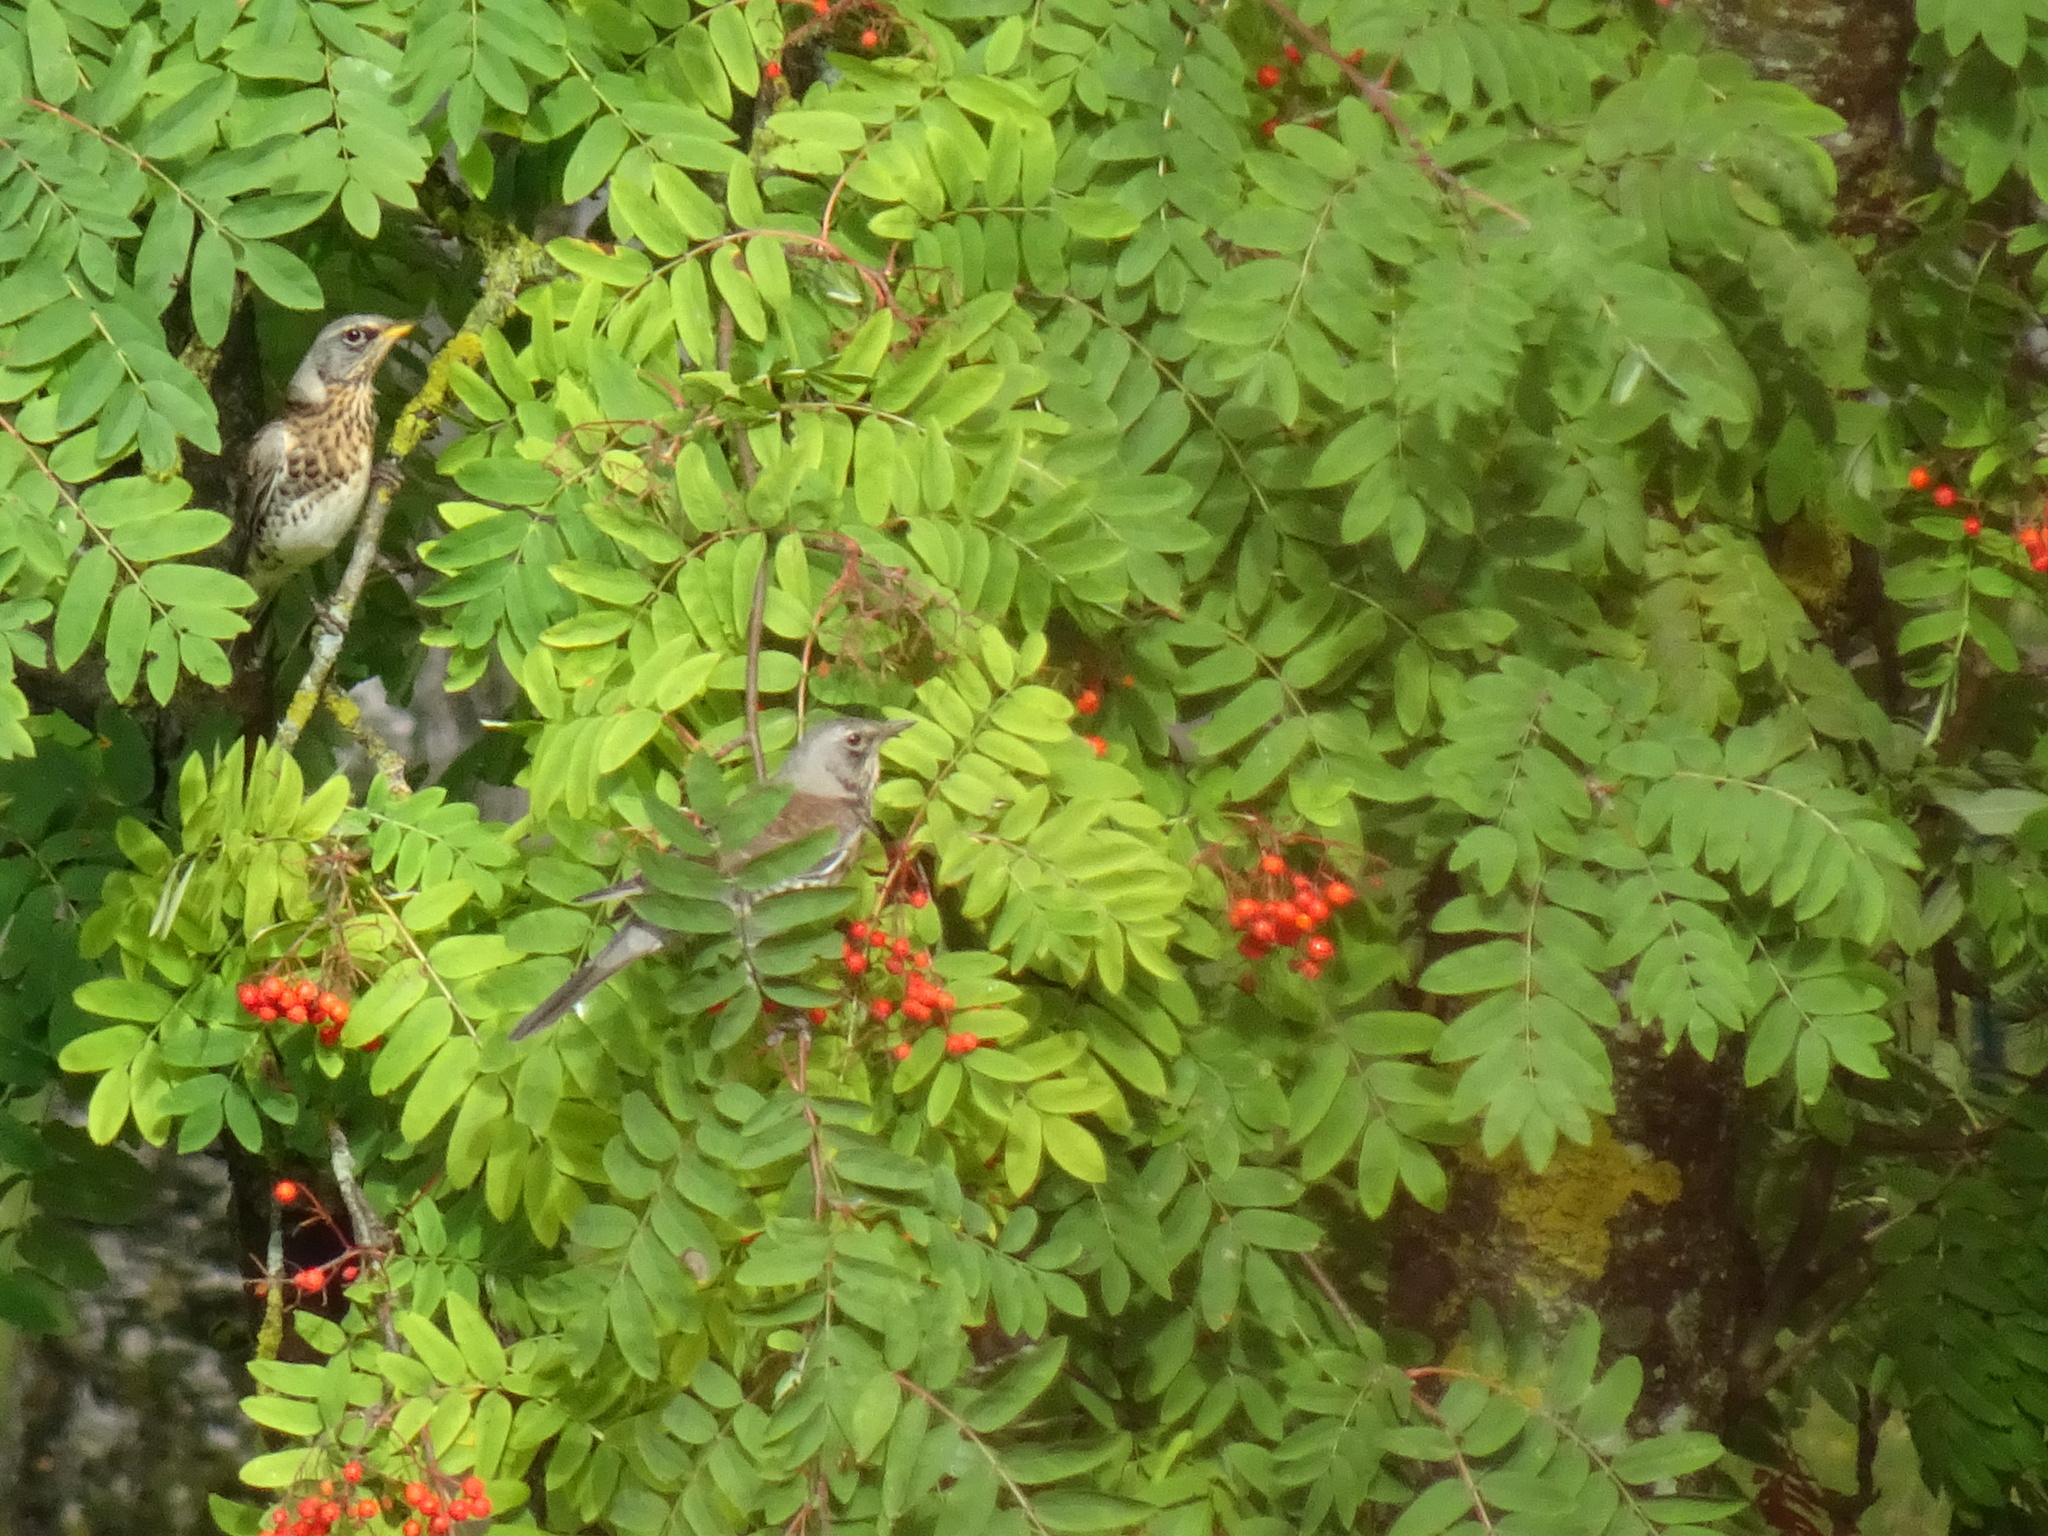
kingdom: Animalia
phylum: Chordata
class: Aves
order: Passeriformes
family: Turdidae
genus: Turdus
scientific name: Turdus pilaris
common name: Fieldfare
